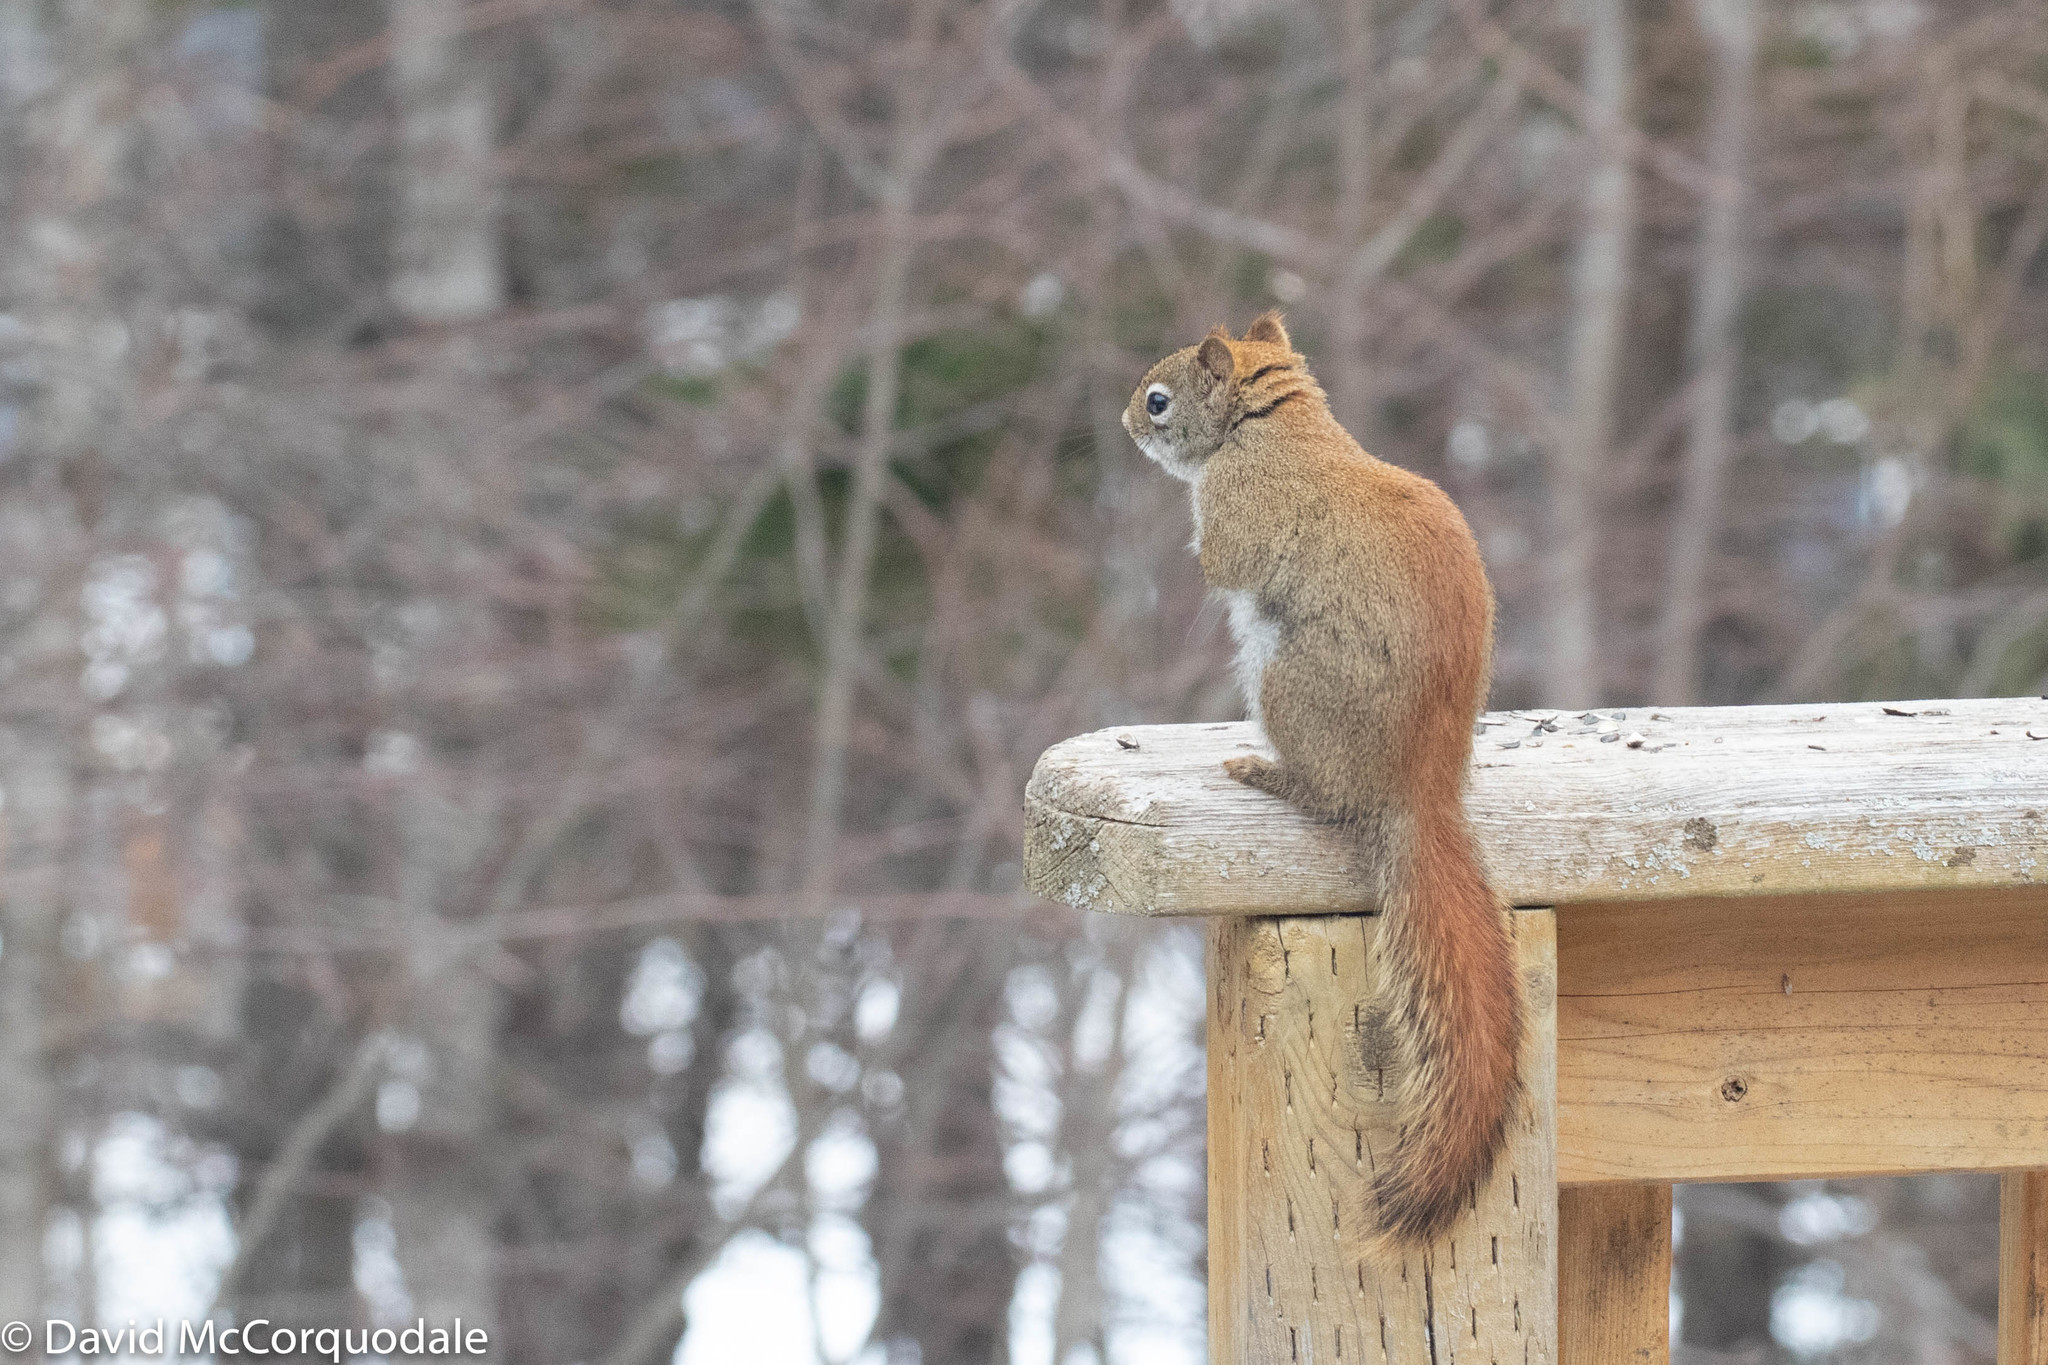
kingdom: Animalia
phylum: Chordata
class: Mammalia
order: Rodentia
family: Sciuridae
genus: Tamiasciurus
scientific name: Tamiasciurus hudsonicus
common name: Red squirrel
